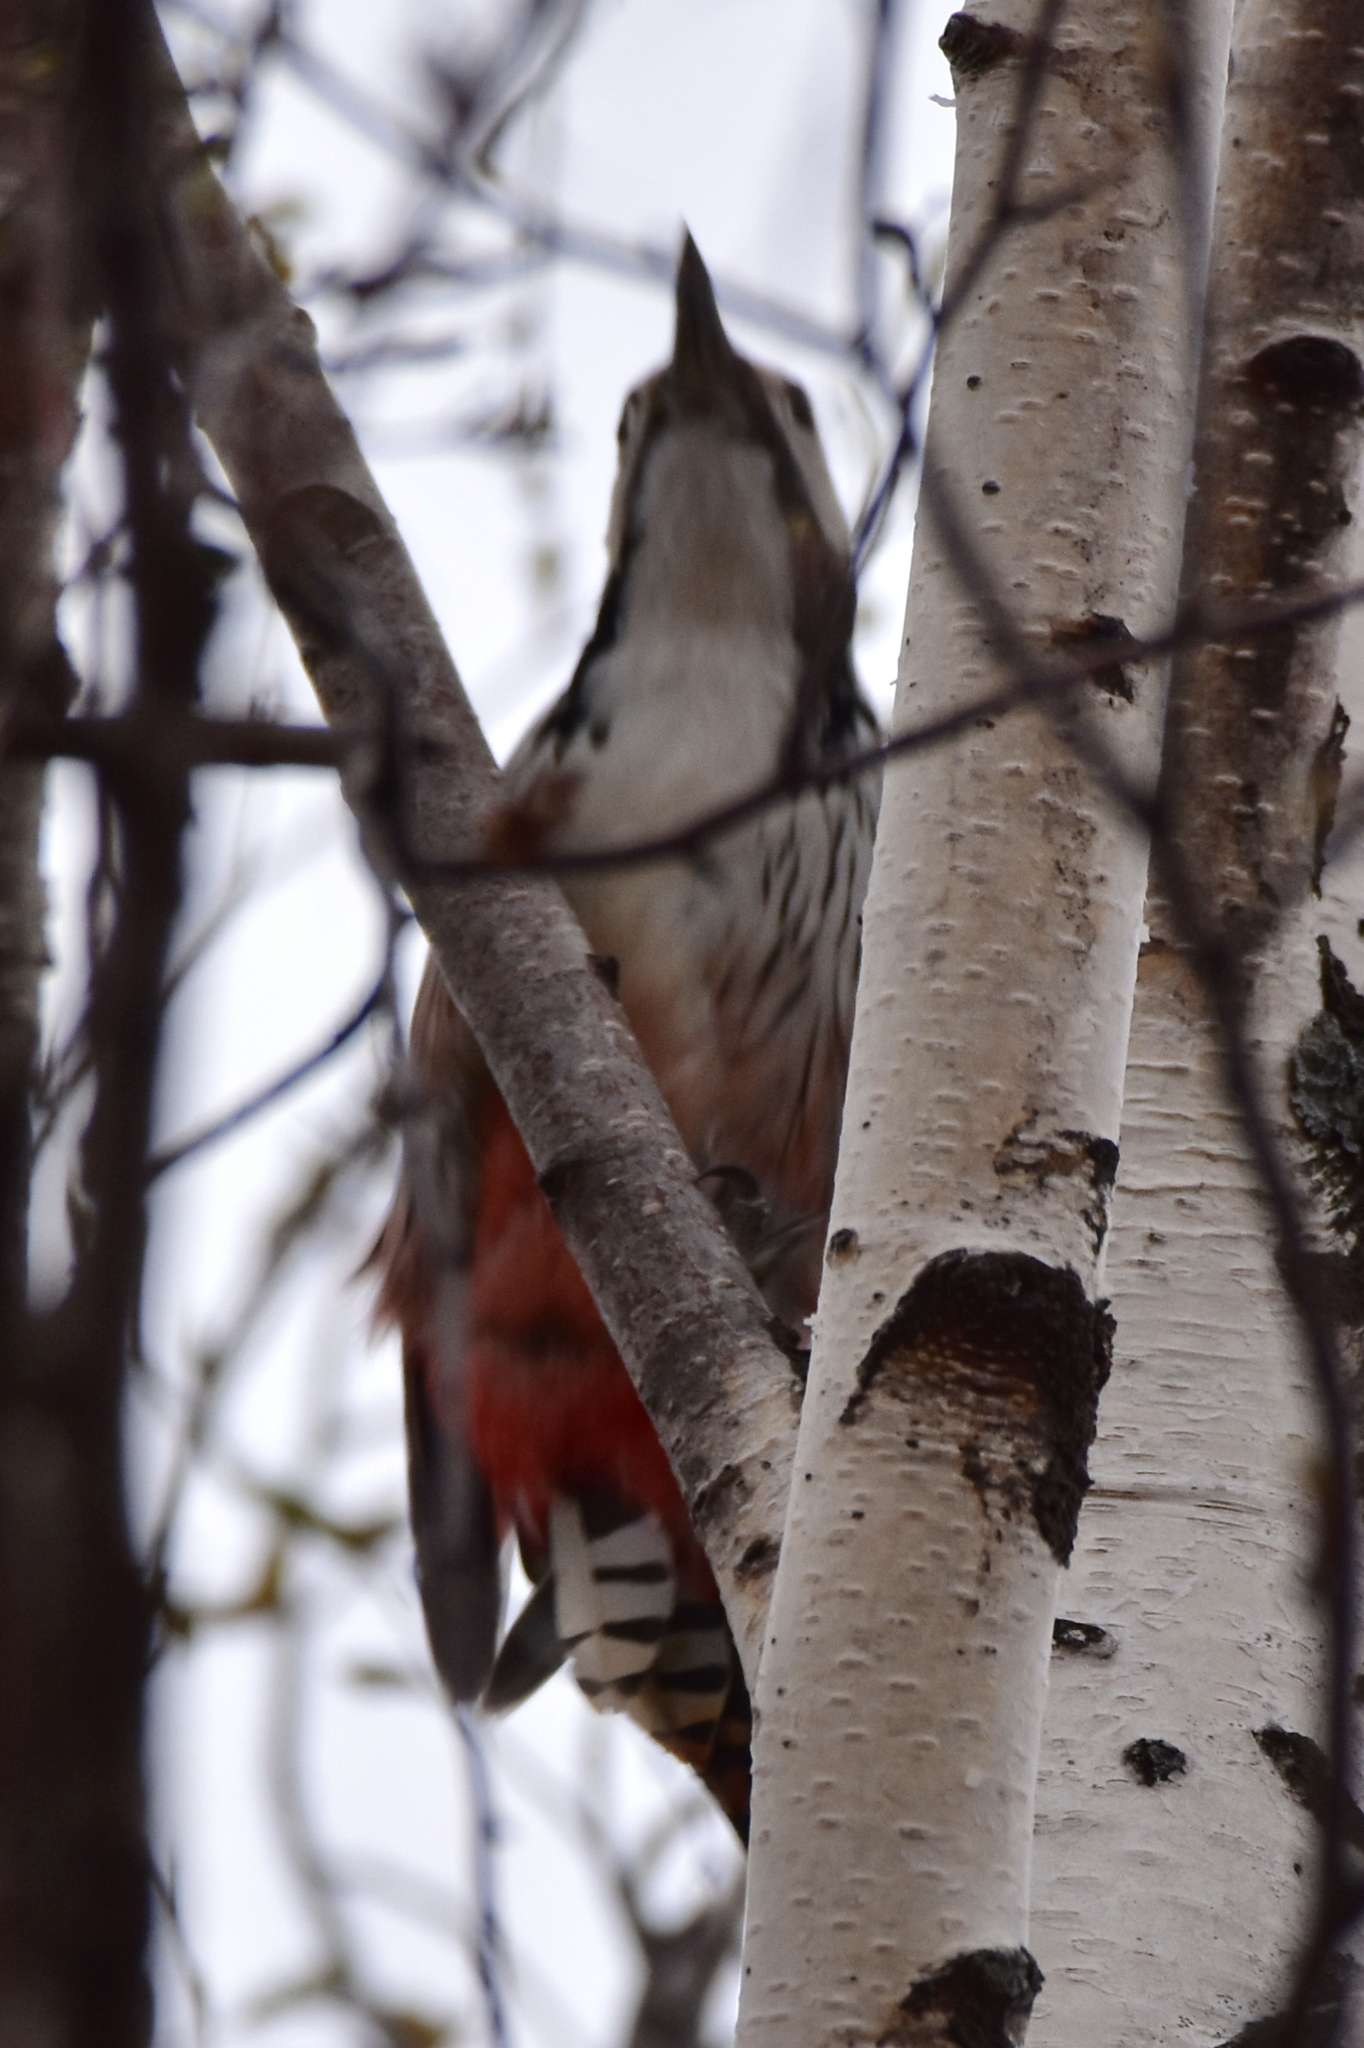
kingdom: Animalia
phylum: Chordata
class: Aves
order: Piciformes
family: Picidae
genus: Dendrocopos
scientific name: Dendrocopos leucotos
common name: White-backed woodpecker
